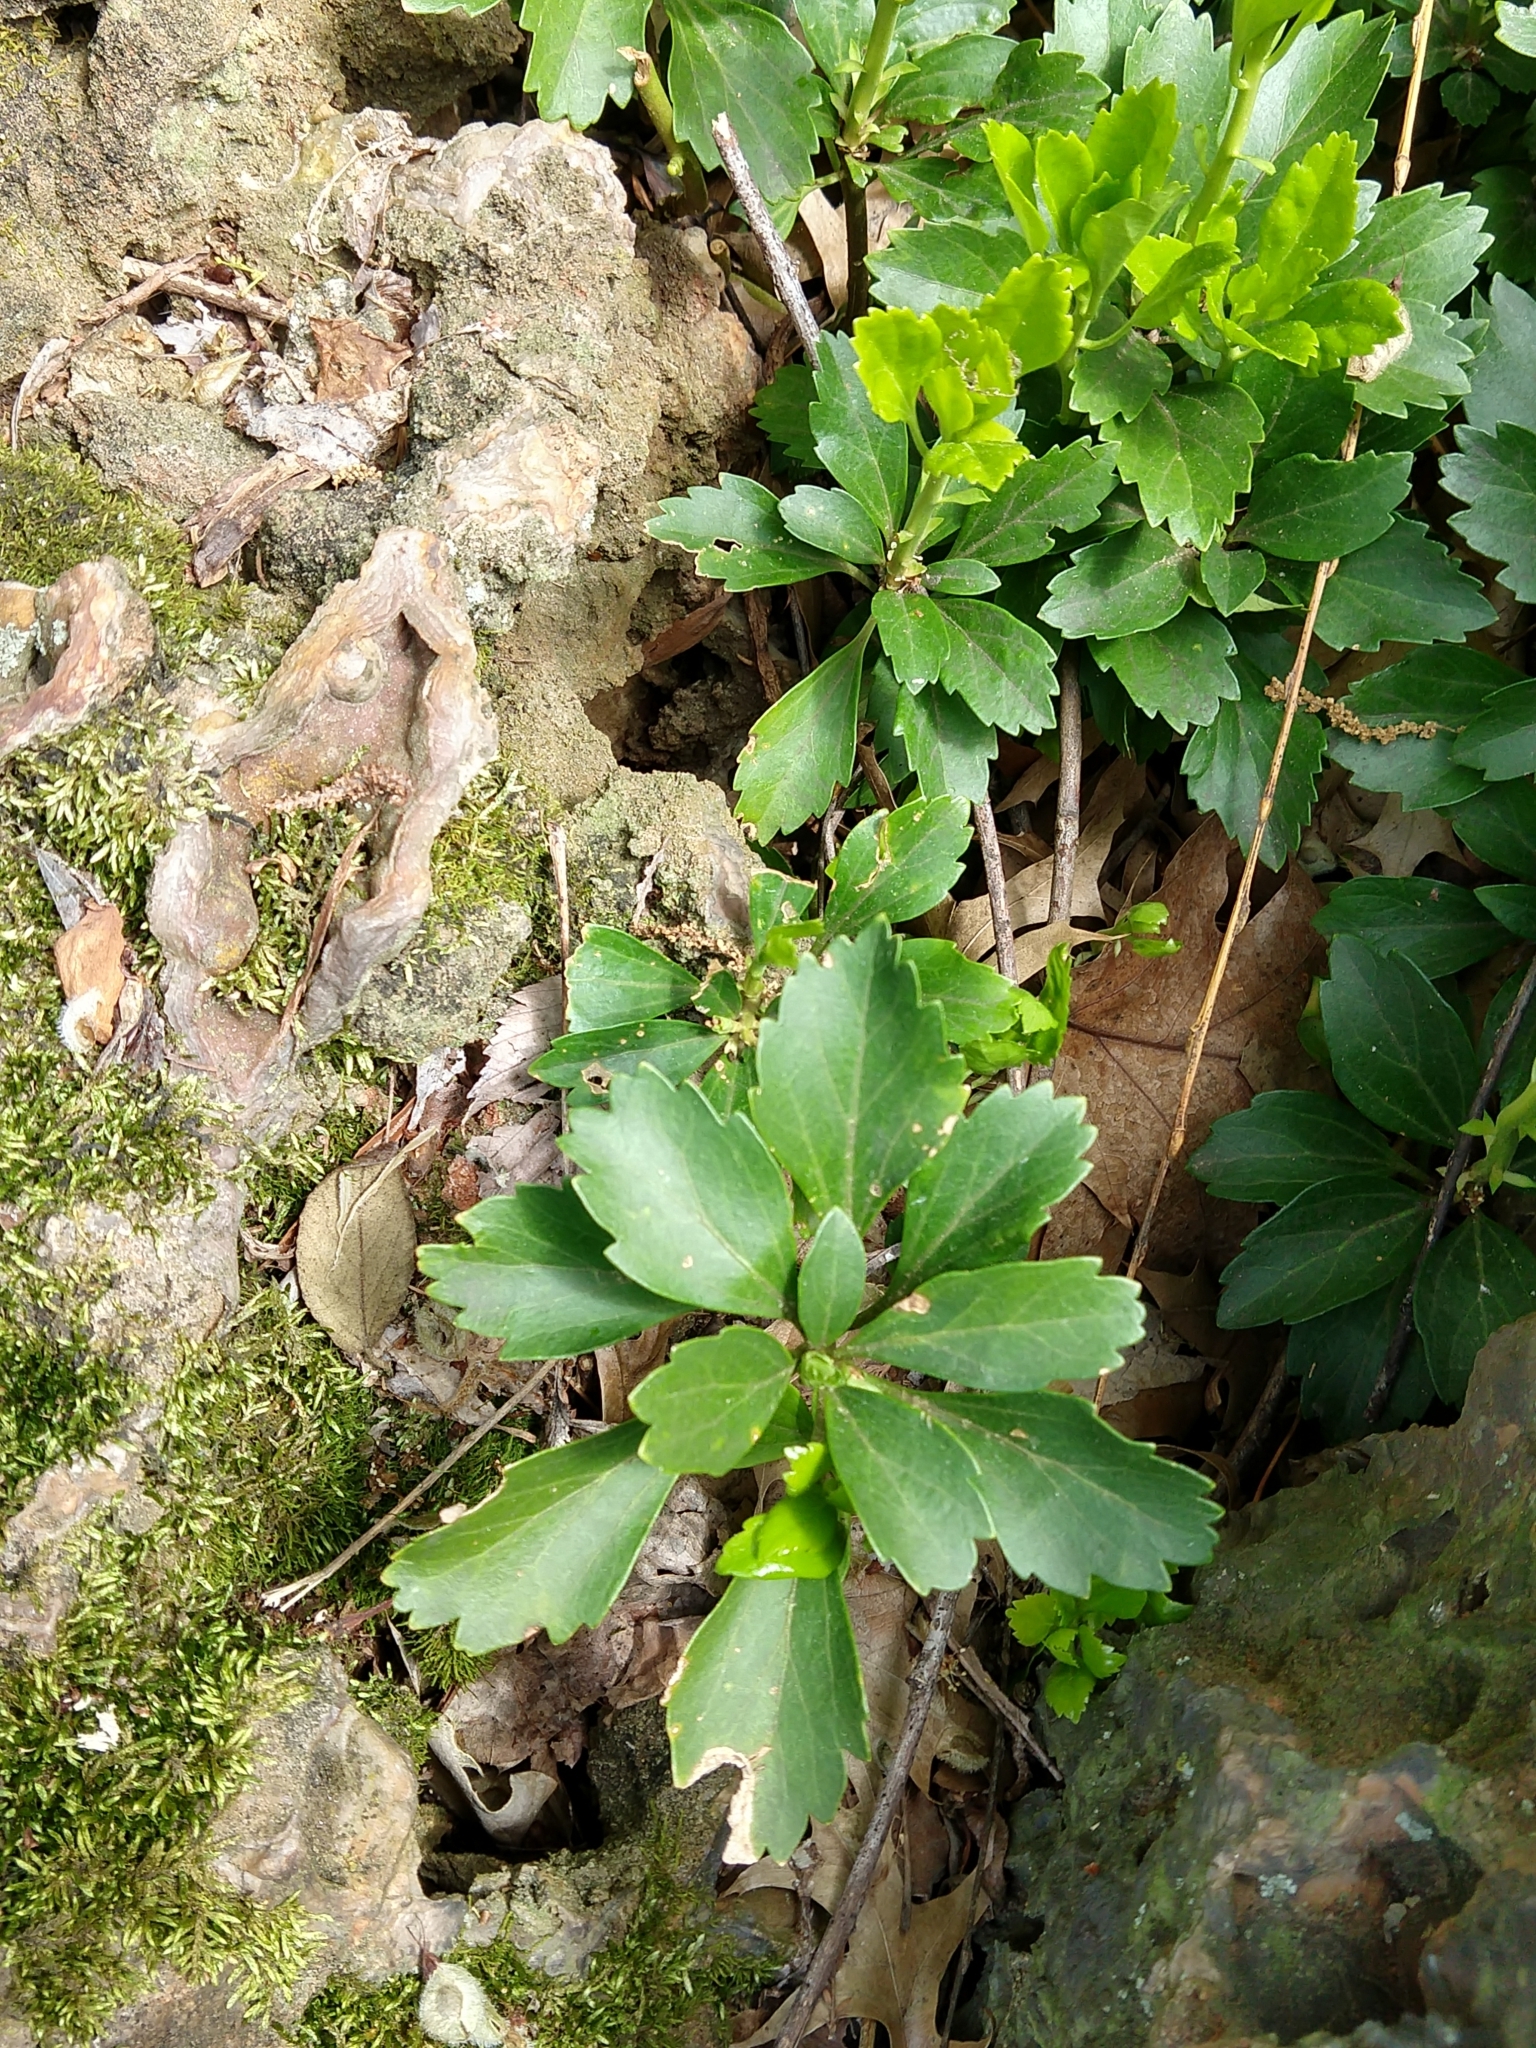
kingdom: Plantae
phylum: Tracheophyta
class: Magnoliopsida
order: Buxales
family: Buxaceae
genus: Pachysandra
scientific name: Pachysandra terminalis
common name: Japanese pachysandra
